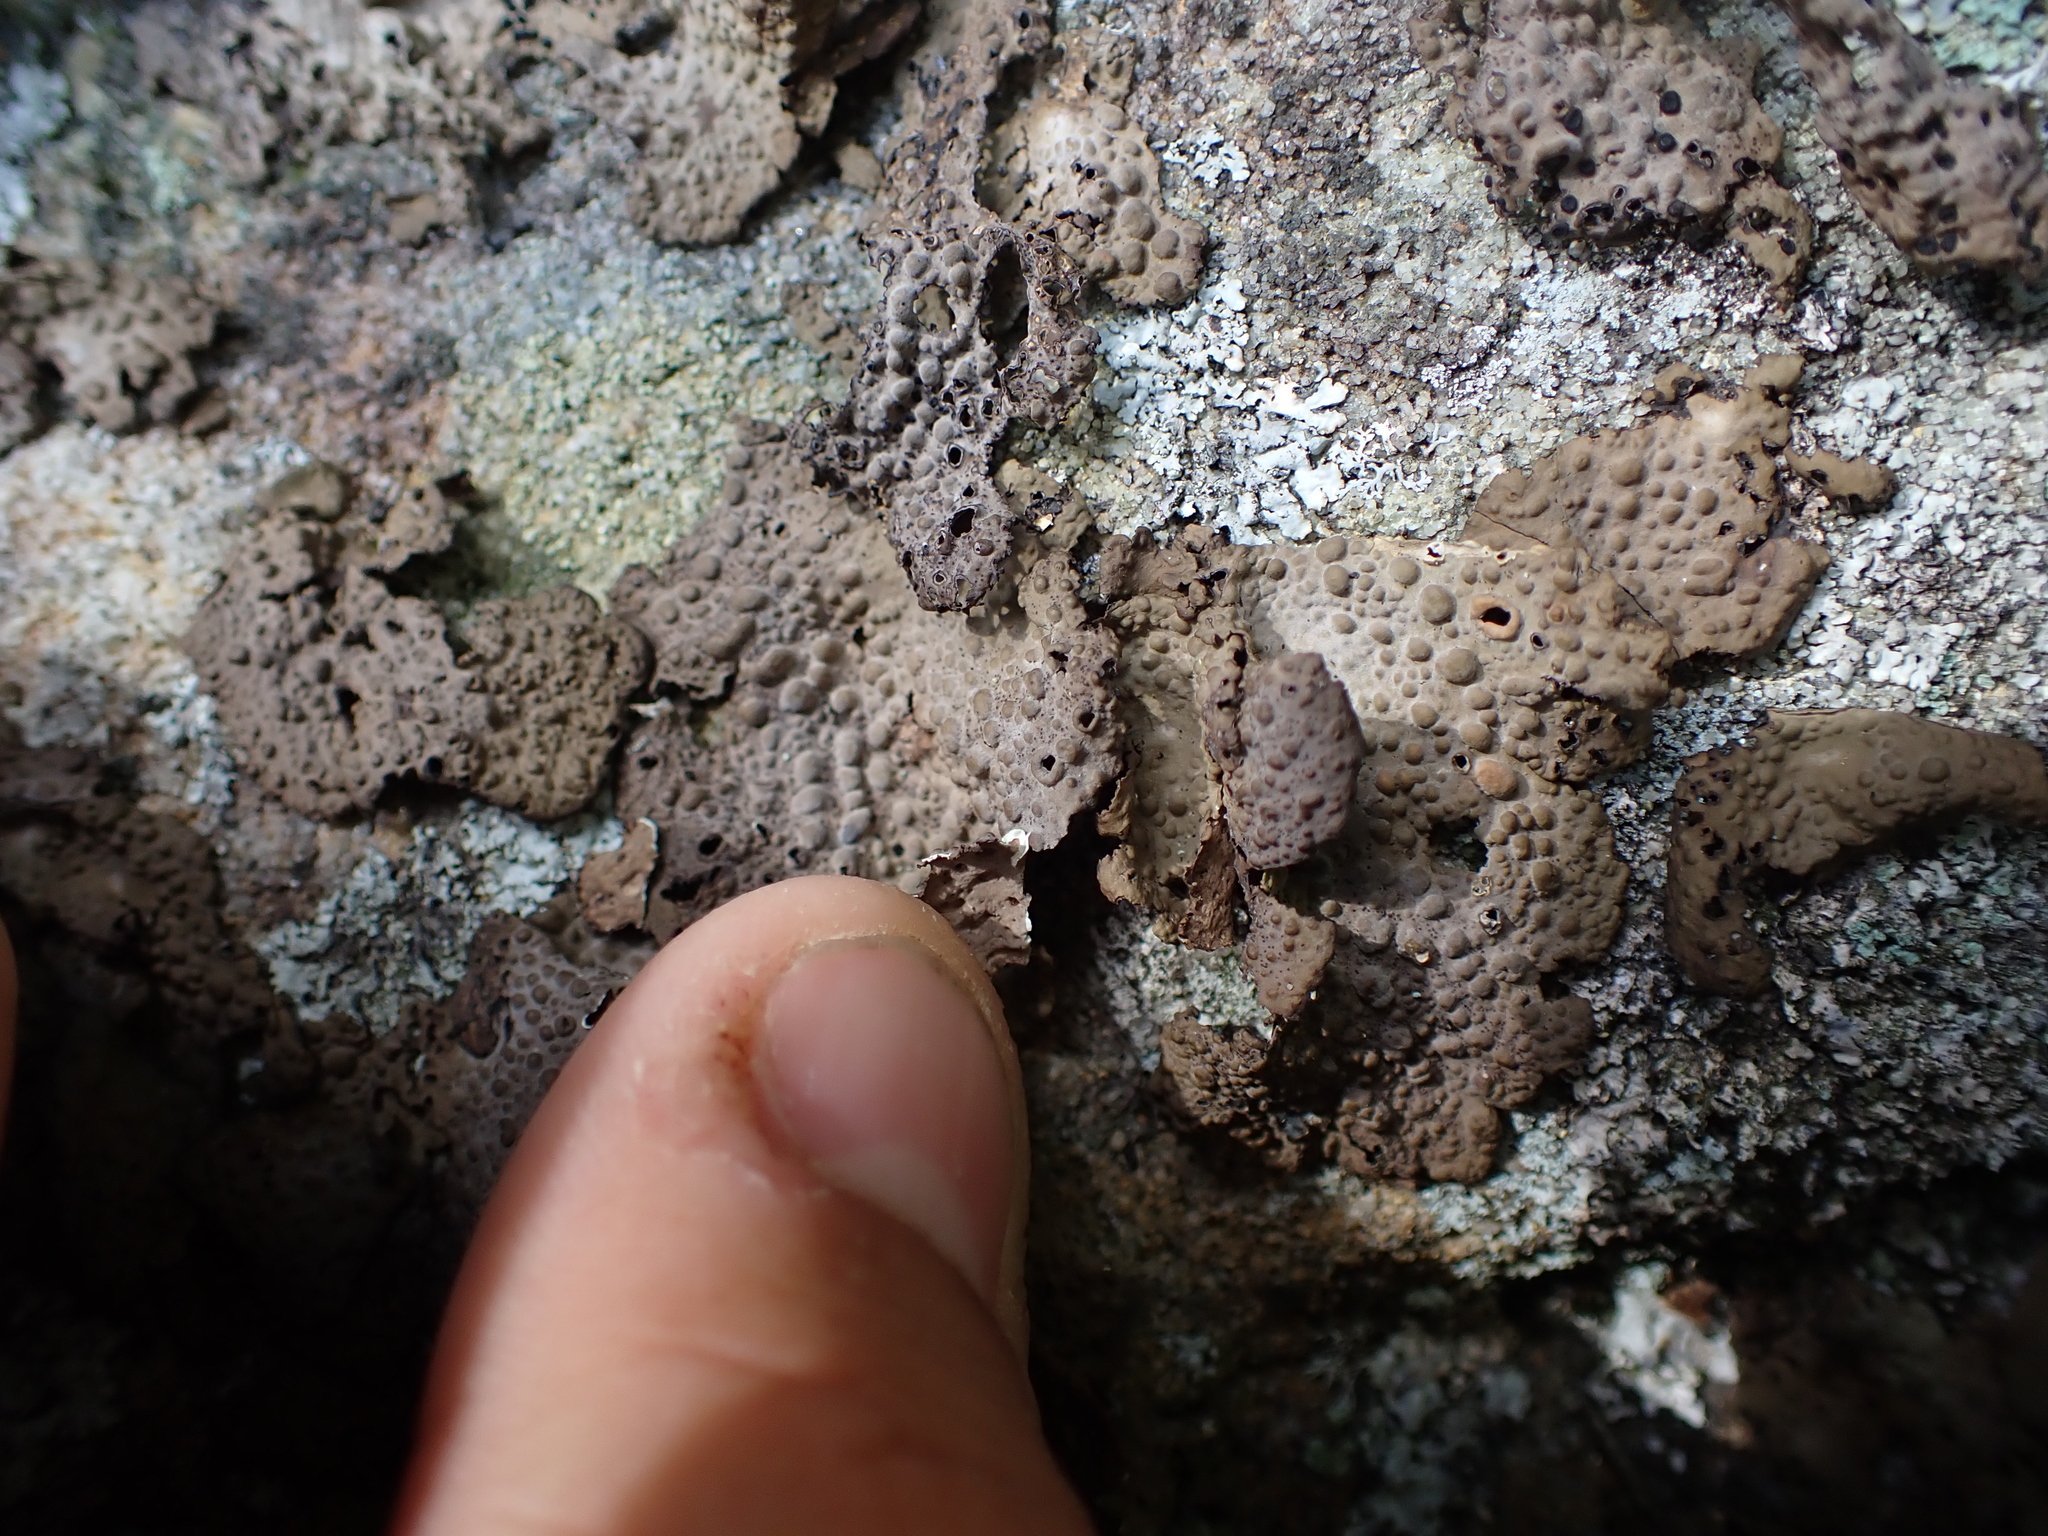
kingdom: Fungi
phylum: Ascomycota
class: Lecanoromycetes
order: Umbilicariales
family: Umbilicariaceae
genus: Lasallia
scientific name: Lasallia papulosa
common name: Common toadskin lichen
